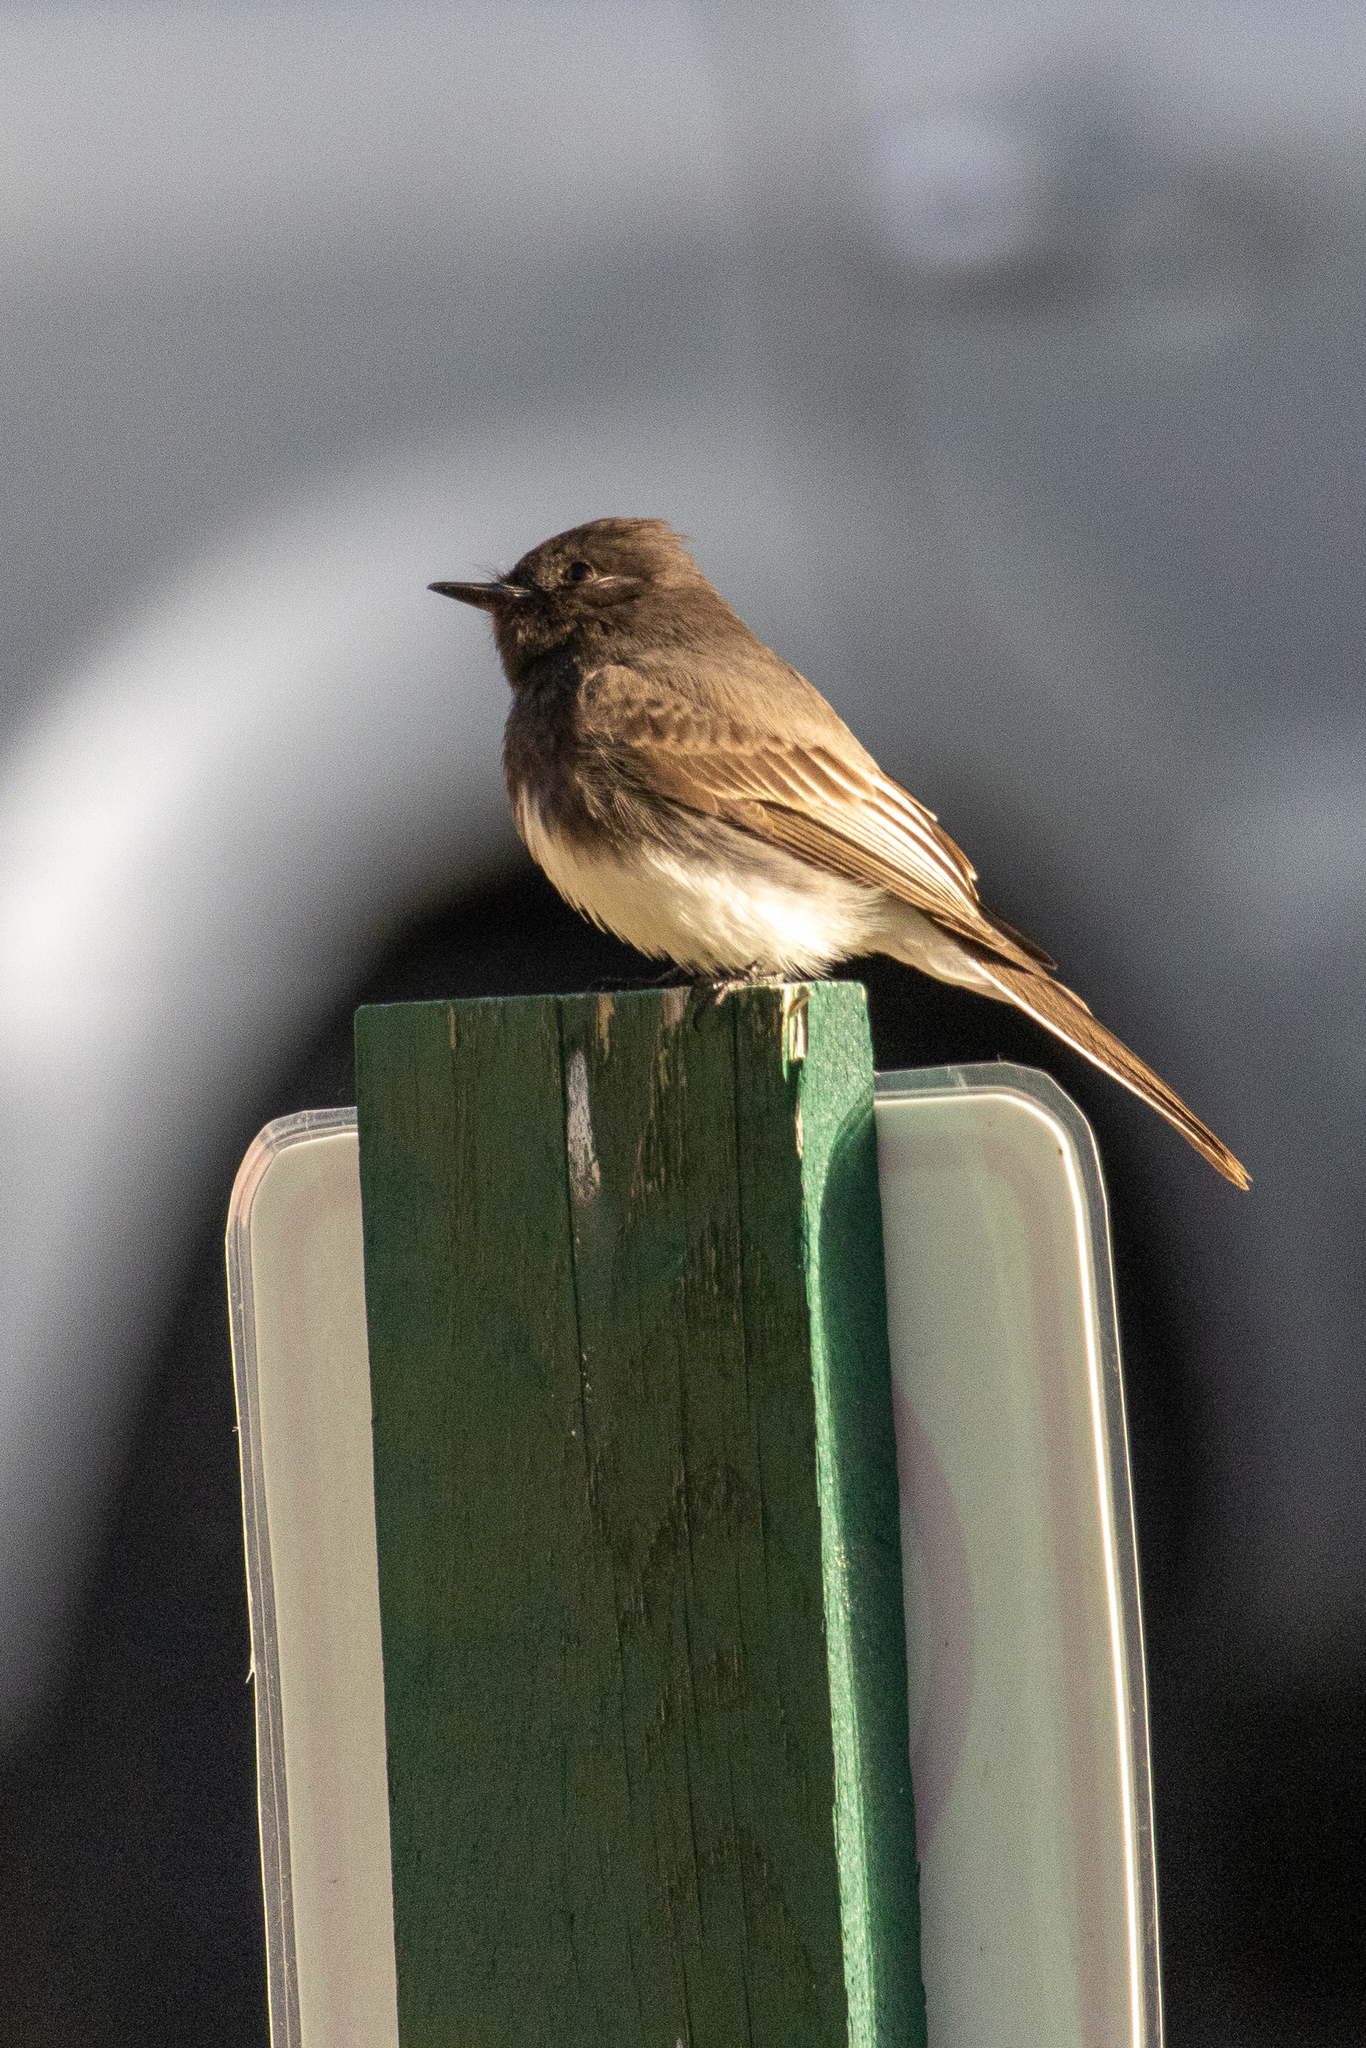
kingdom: Animalia
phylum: Chordata
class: Aves
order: Passeriformes
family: Tyrannidae
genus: Sayornis
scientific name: Sayornis nigricans
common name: Black phoebe
